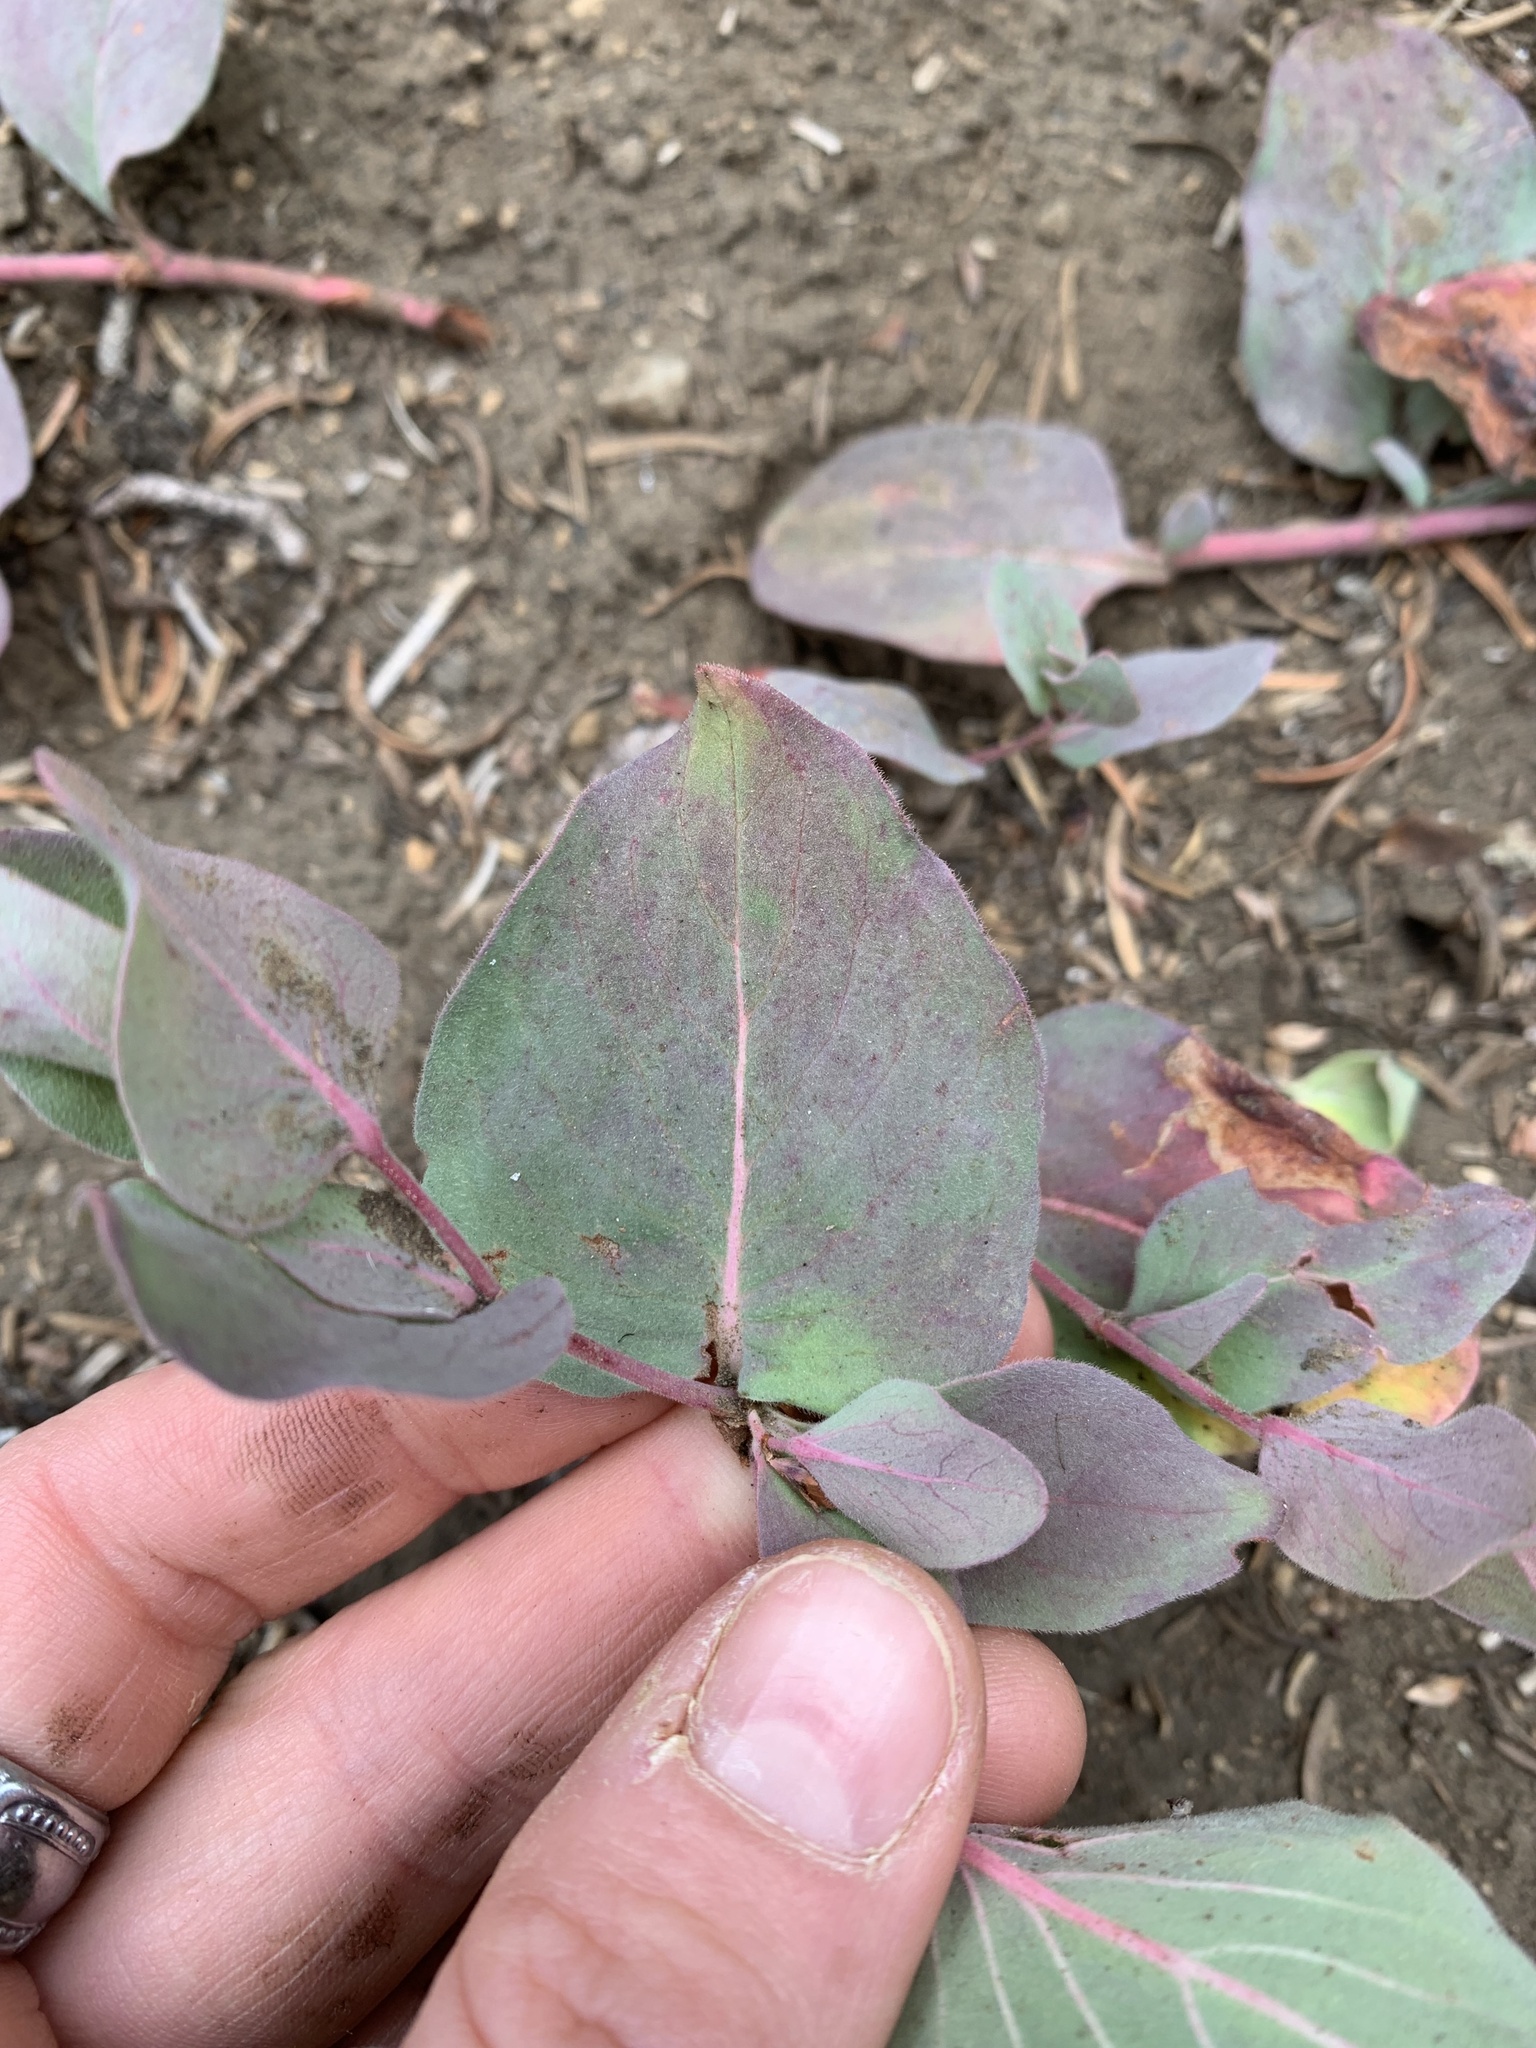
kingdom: Plantae
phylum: Tracheophyta
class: Magnoliopsida
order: Caryophyllales
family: Polygonaceae
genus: Koenigia
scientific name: Koenigia davisiae
